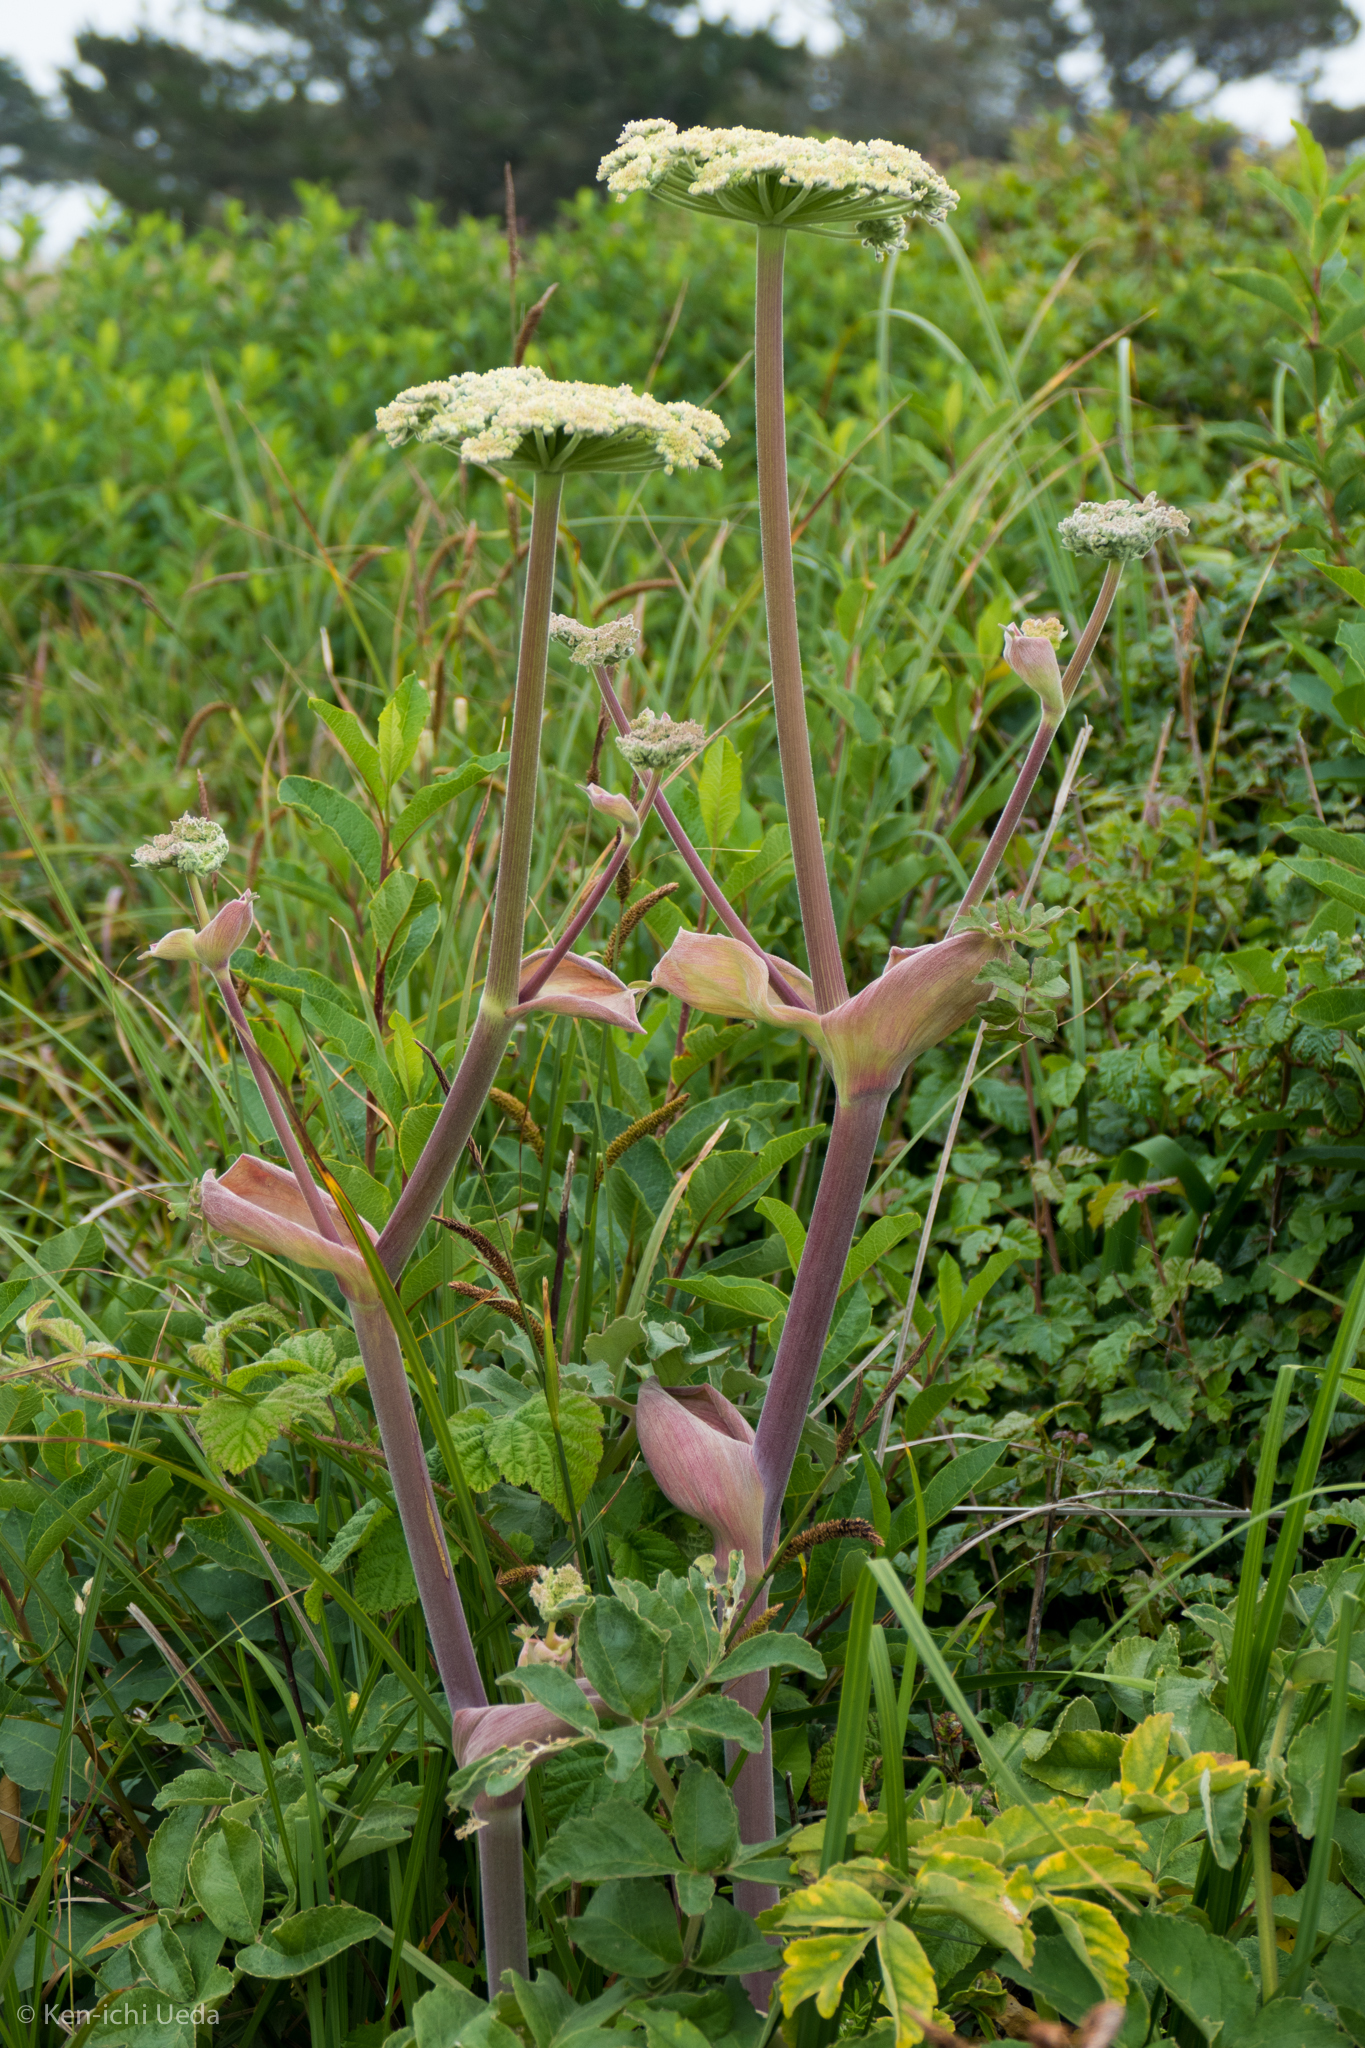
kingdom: Plantae
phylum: Tracheophyta
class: Magnoliopsida
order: Apiales
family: Apiaceae
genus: Angelica
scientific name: Angelica hendersonii
